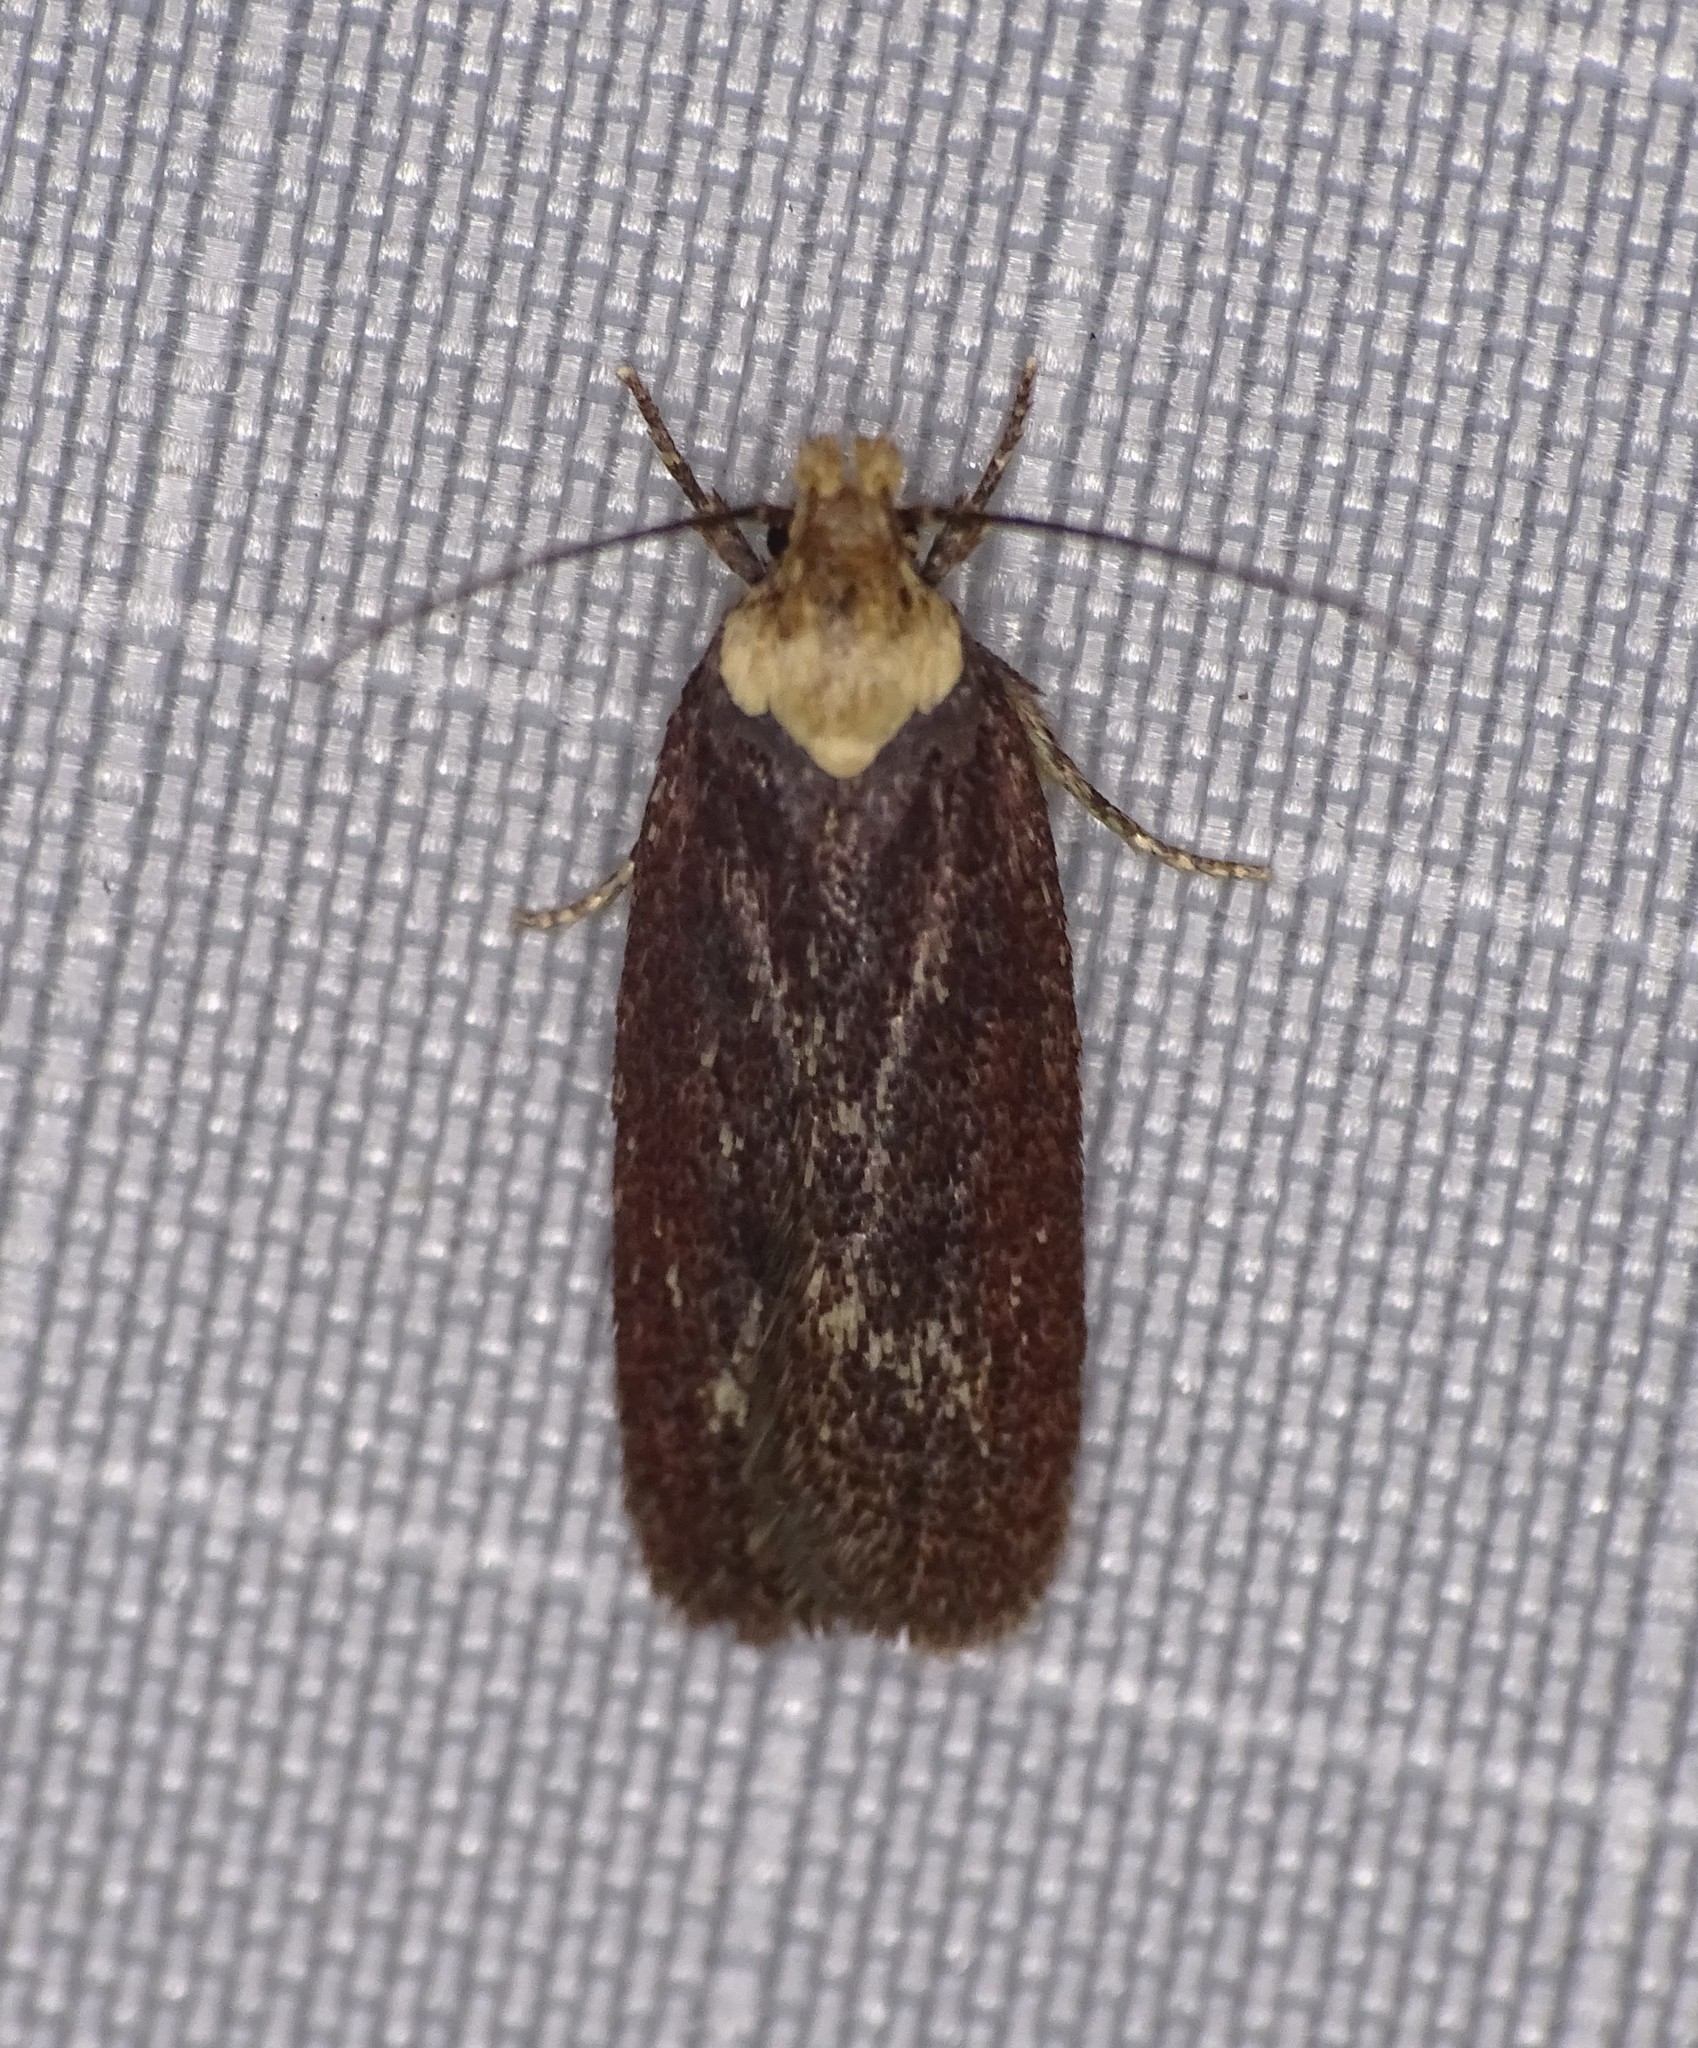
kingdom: Animalia
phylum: Arthropoda
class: Insecta
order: Lepidoptera
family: Depressariidae
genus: Depressaria
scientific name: Depressaria depressana
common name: Lost flat-body
